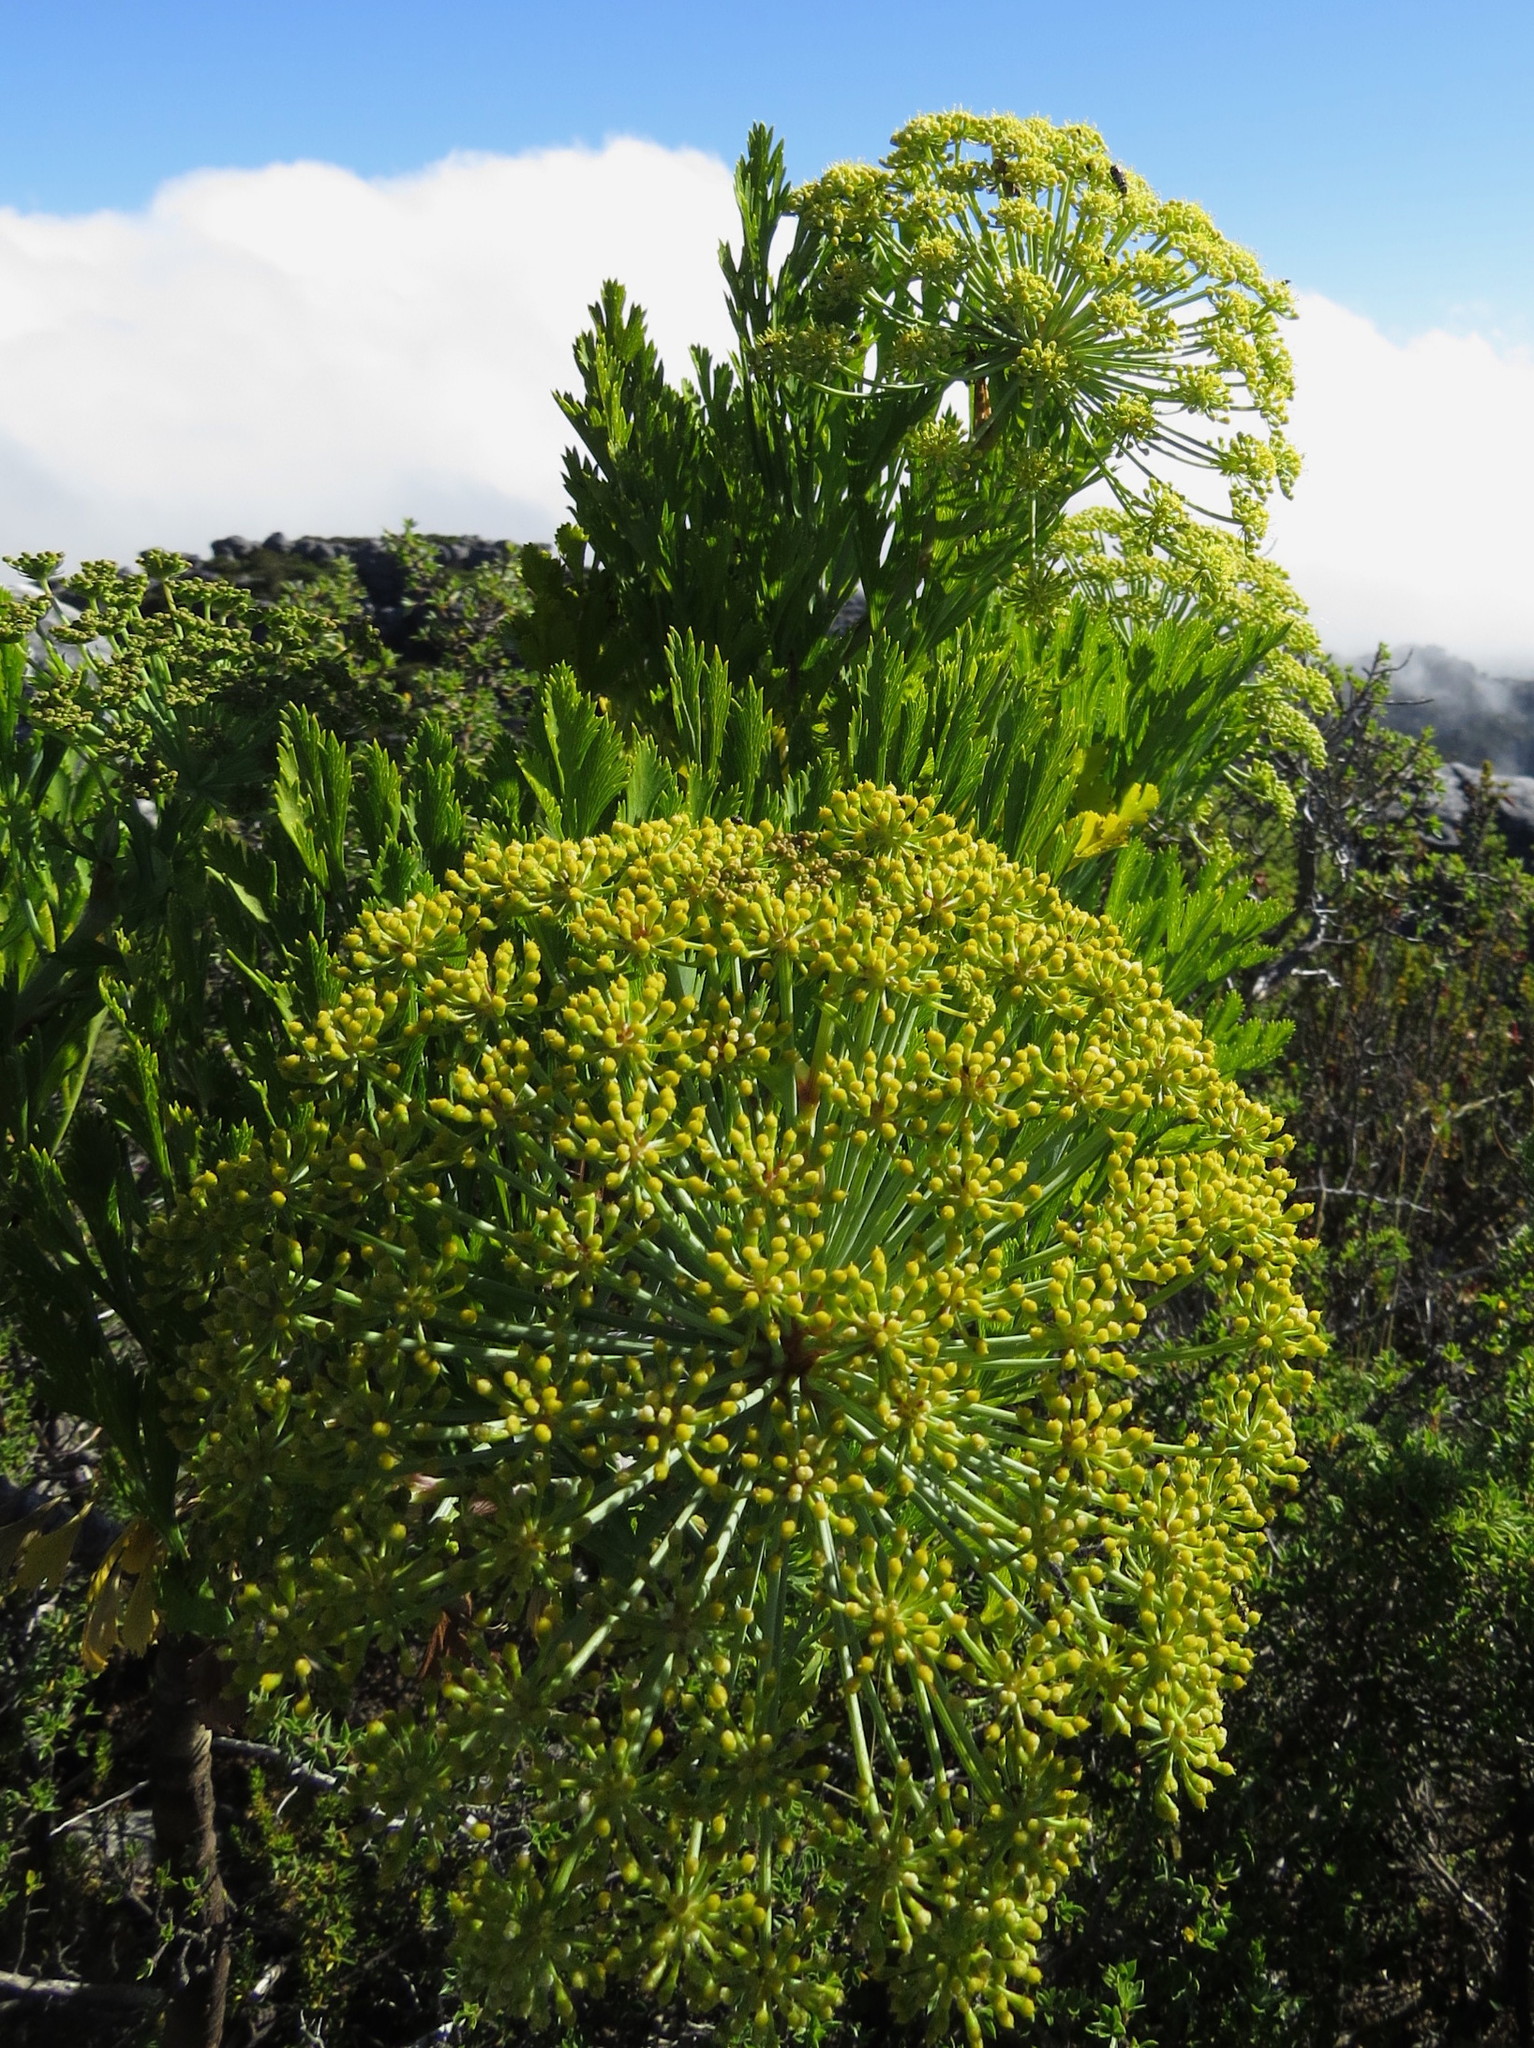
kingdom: Plantae
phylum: Tracheophyta
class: Magnoliopsida
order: Apiales
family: Apiaceae
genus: Notobubon
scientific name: Notobubon galbanum
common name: Blisterbush
